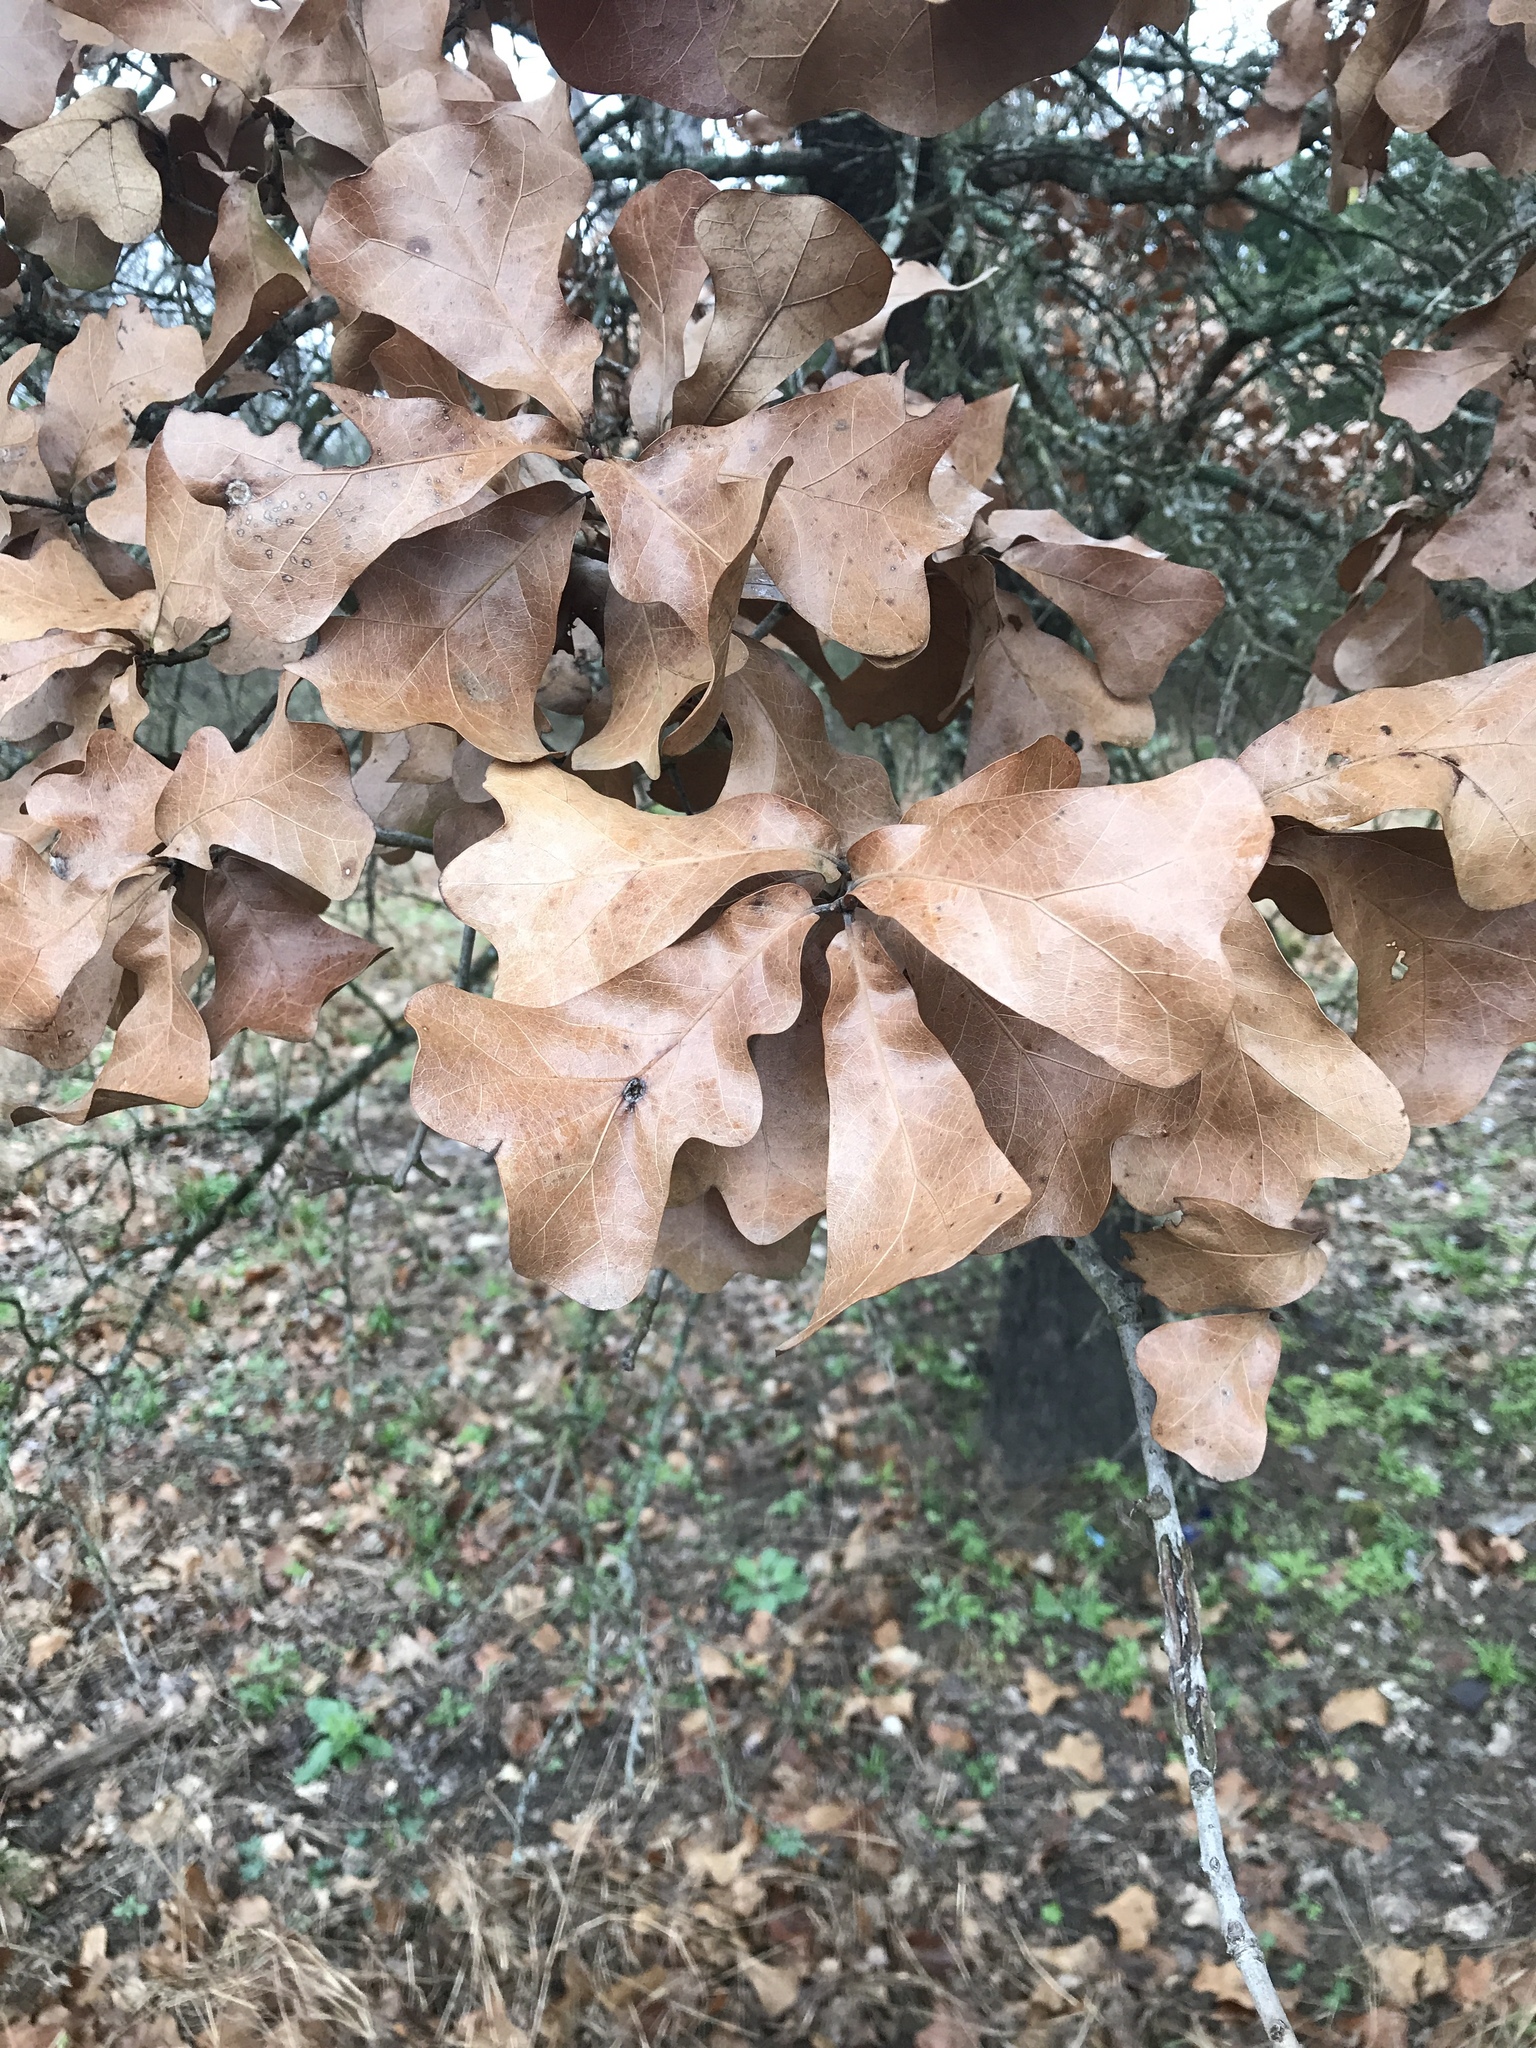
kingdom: Plantae
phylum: Tracheophyta
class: Magnoliopsida
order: Fagales
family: Fagaceae
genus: Quercus
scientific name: Quercus marilandica
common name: Blackjack oak
